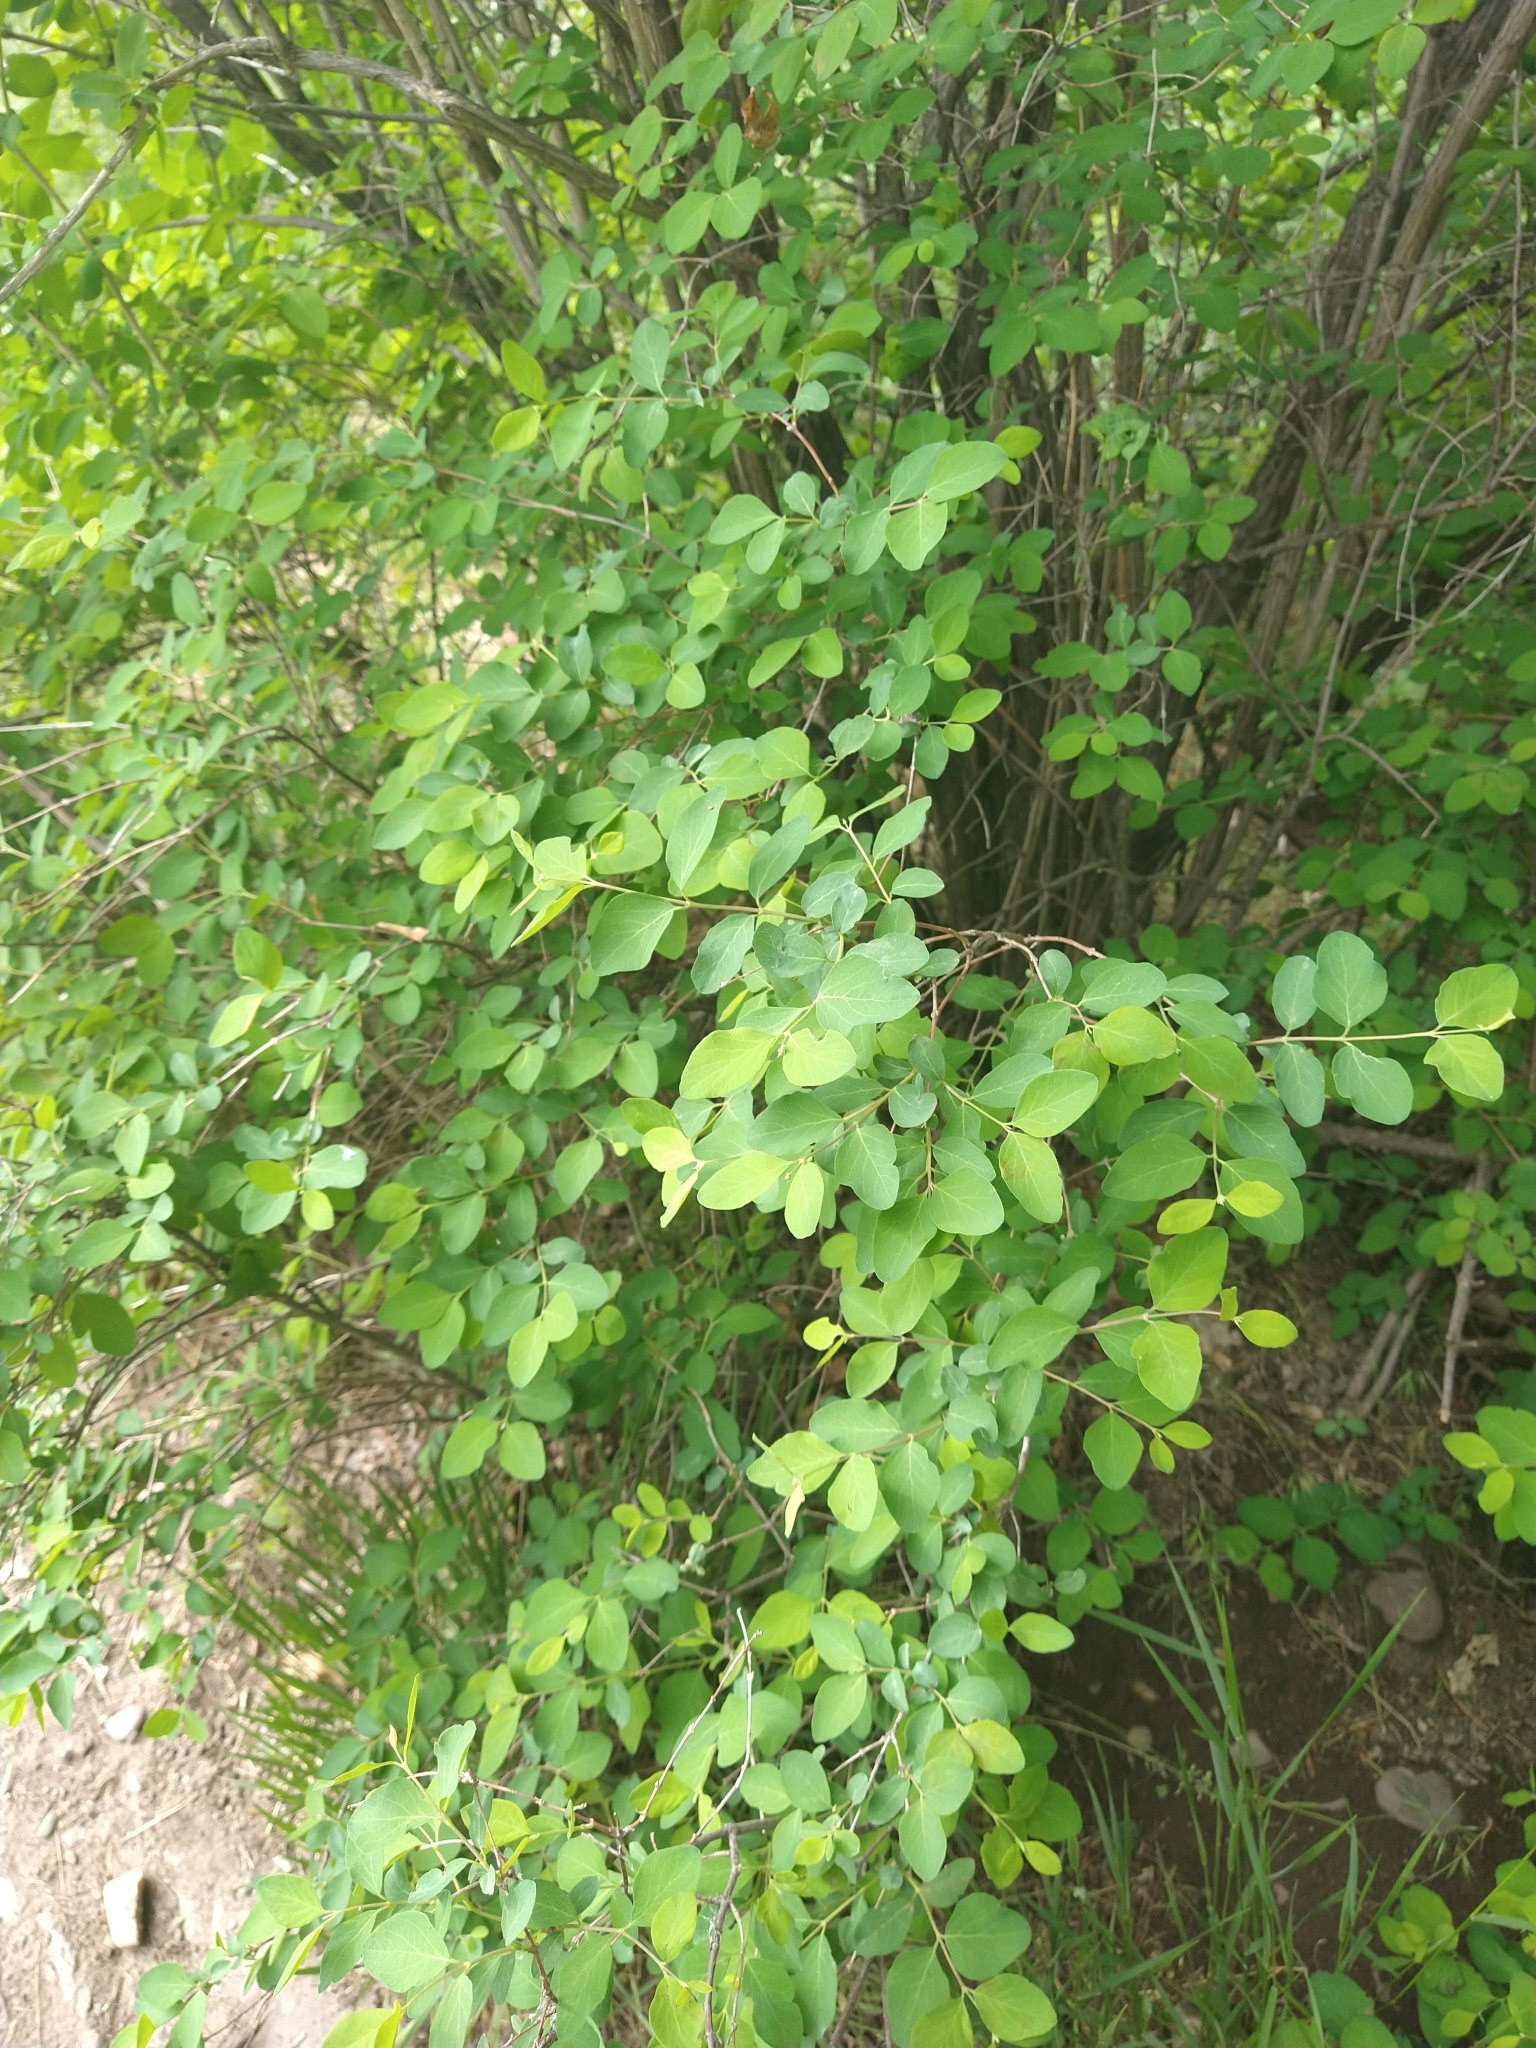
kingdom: Plantae
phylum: Tracheophyta
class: Magnoliopsida
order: Dipsacales
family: Caprifoliaceae
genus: Lonicera
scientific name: Lonicera tatarica
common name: Tatarian honeysuckle
